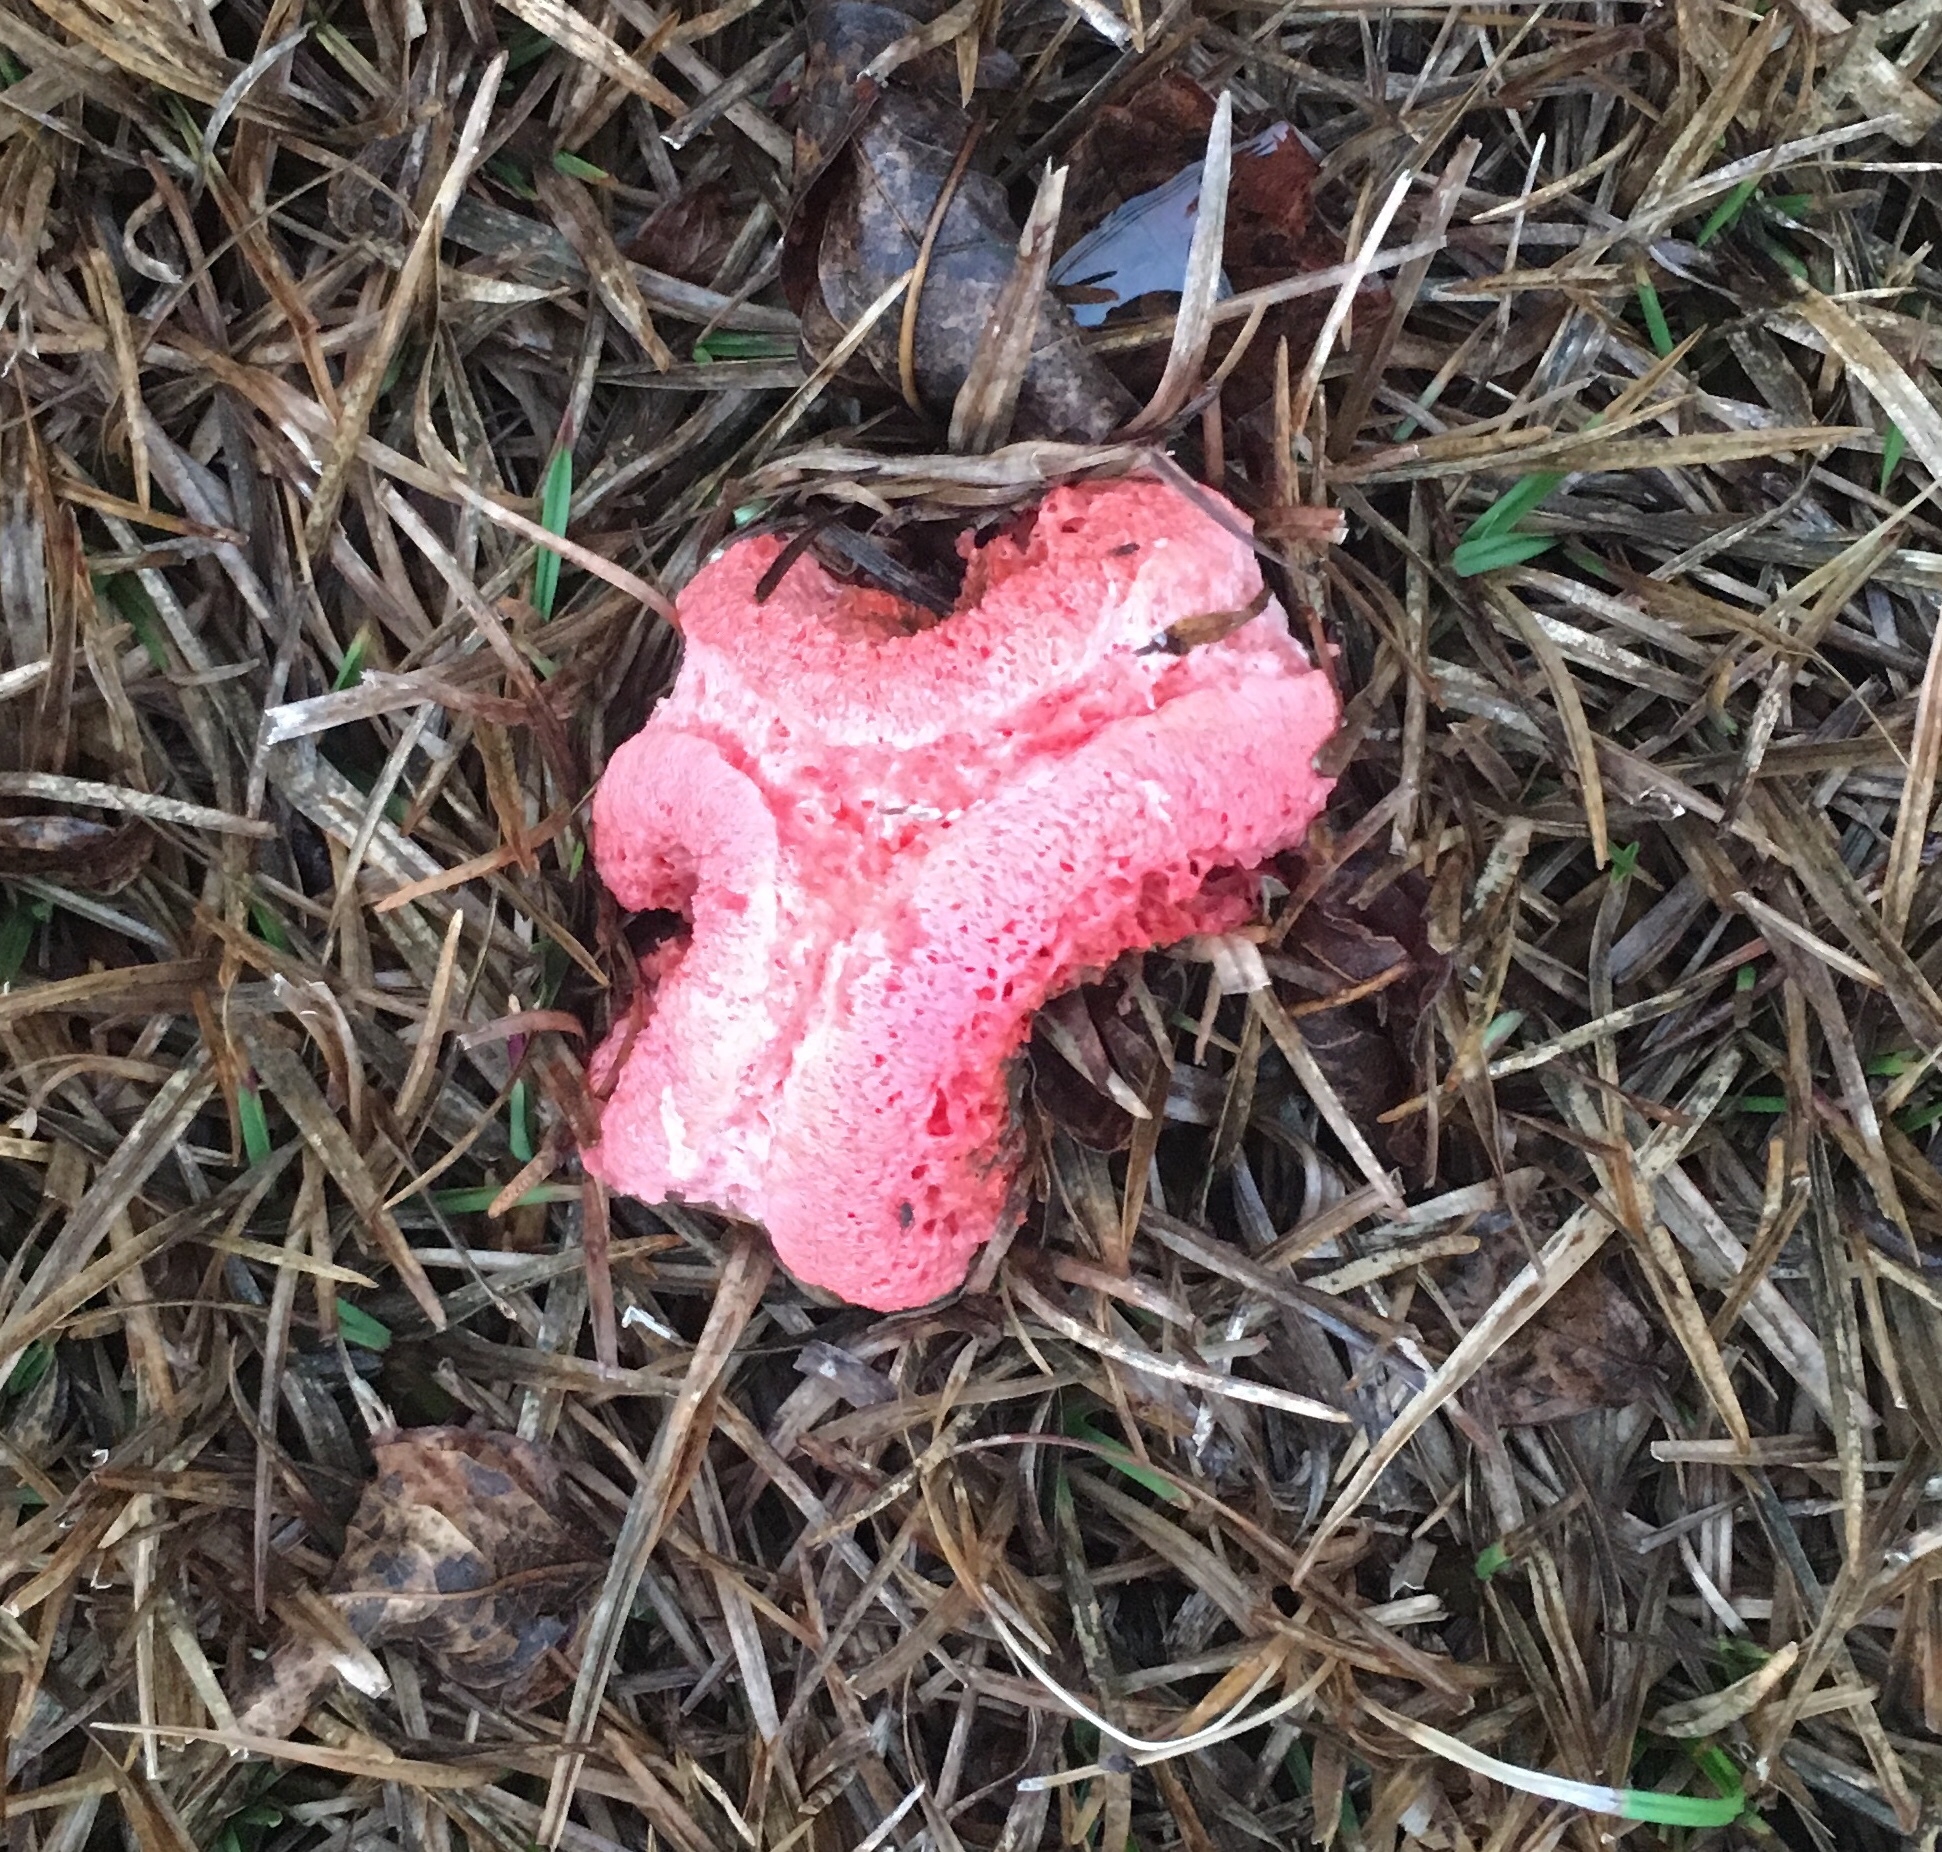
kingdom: Fungi
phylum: Basidiomycota
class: Agaricomycetes
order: Phallales
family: Phallaceae
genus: Clathrus
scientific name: Clathrus columnatus
